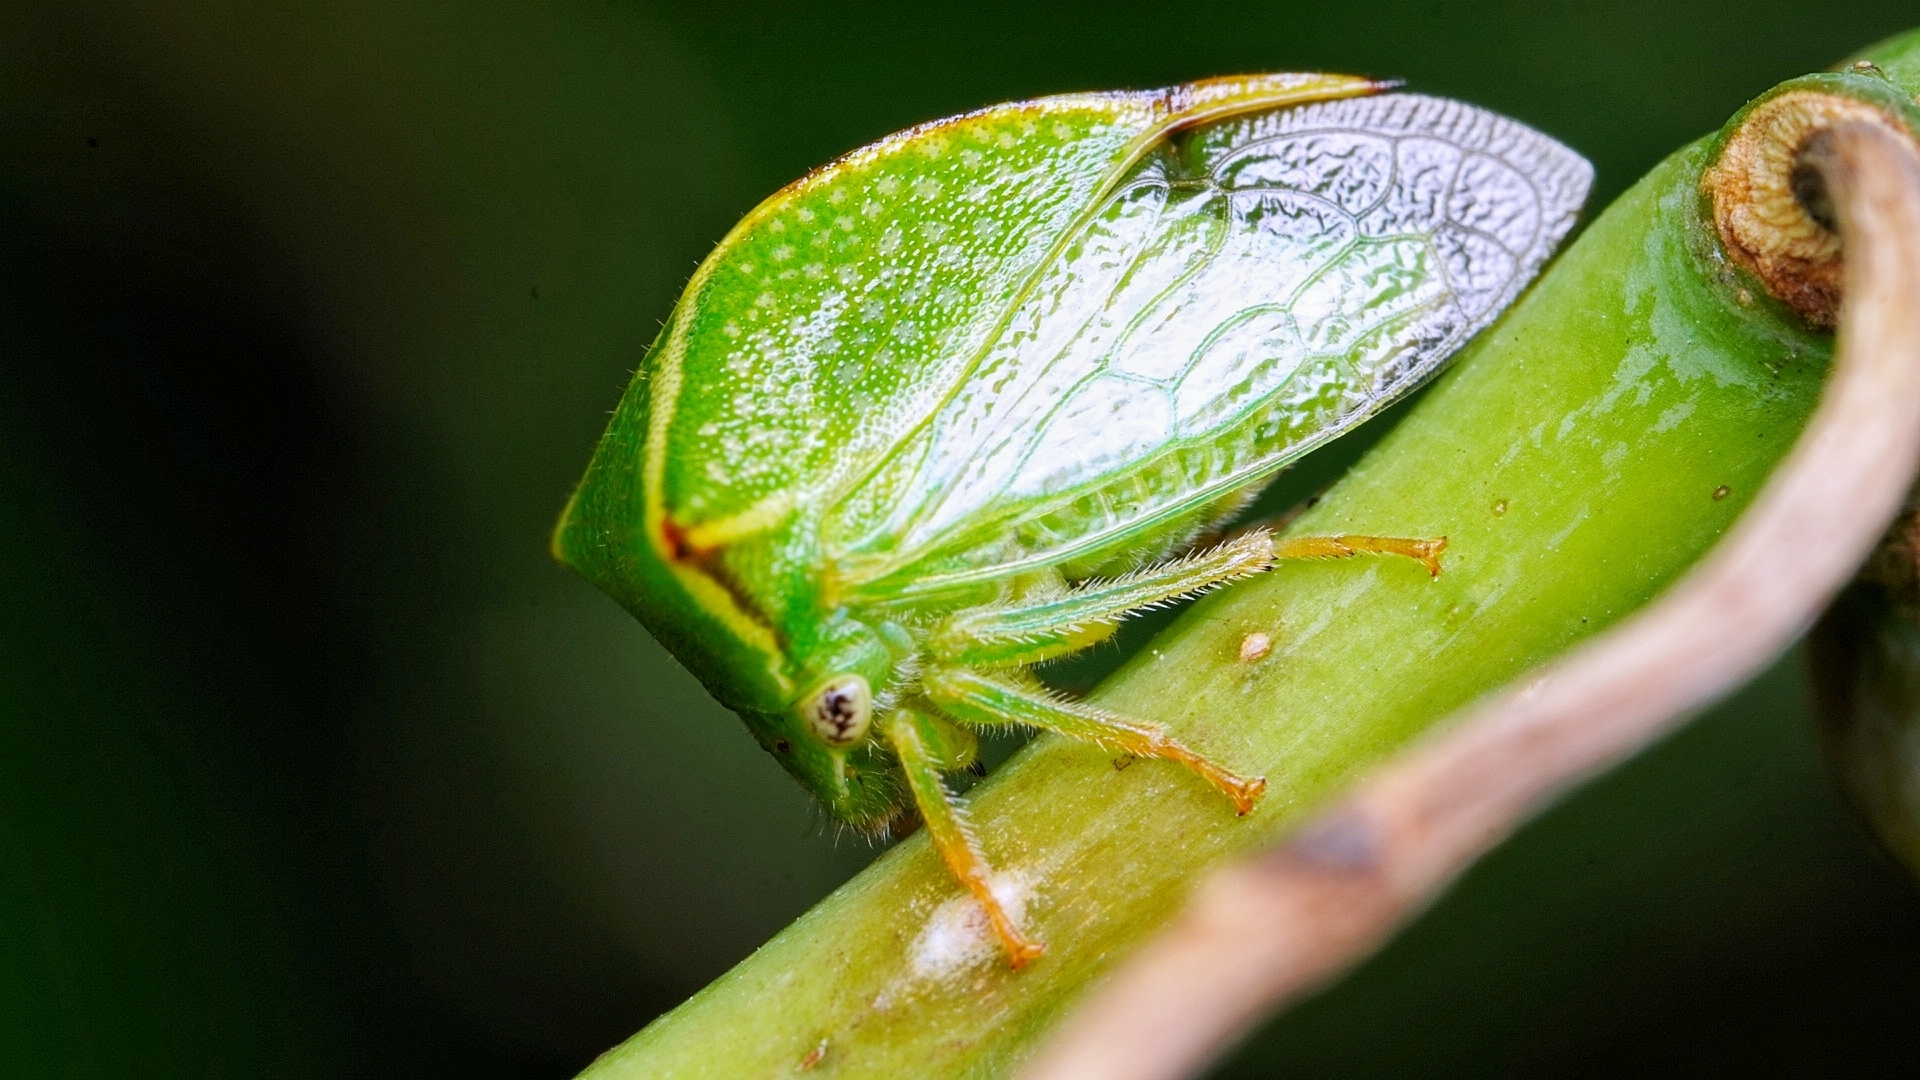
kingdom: Animalia
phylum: Arthropoda
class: Insecta
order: Hemiptera
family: Membracidae
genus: Stictocephala
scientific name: Stictocephala bisonia
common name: American buffalo treehopper
